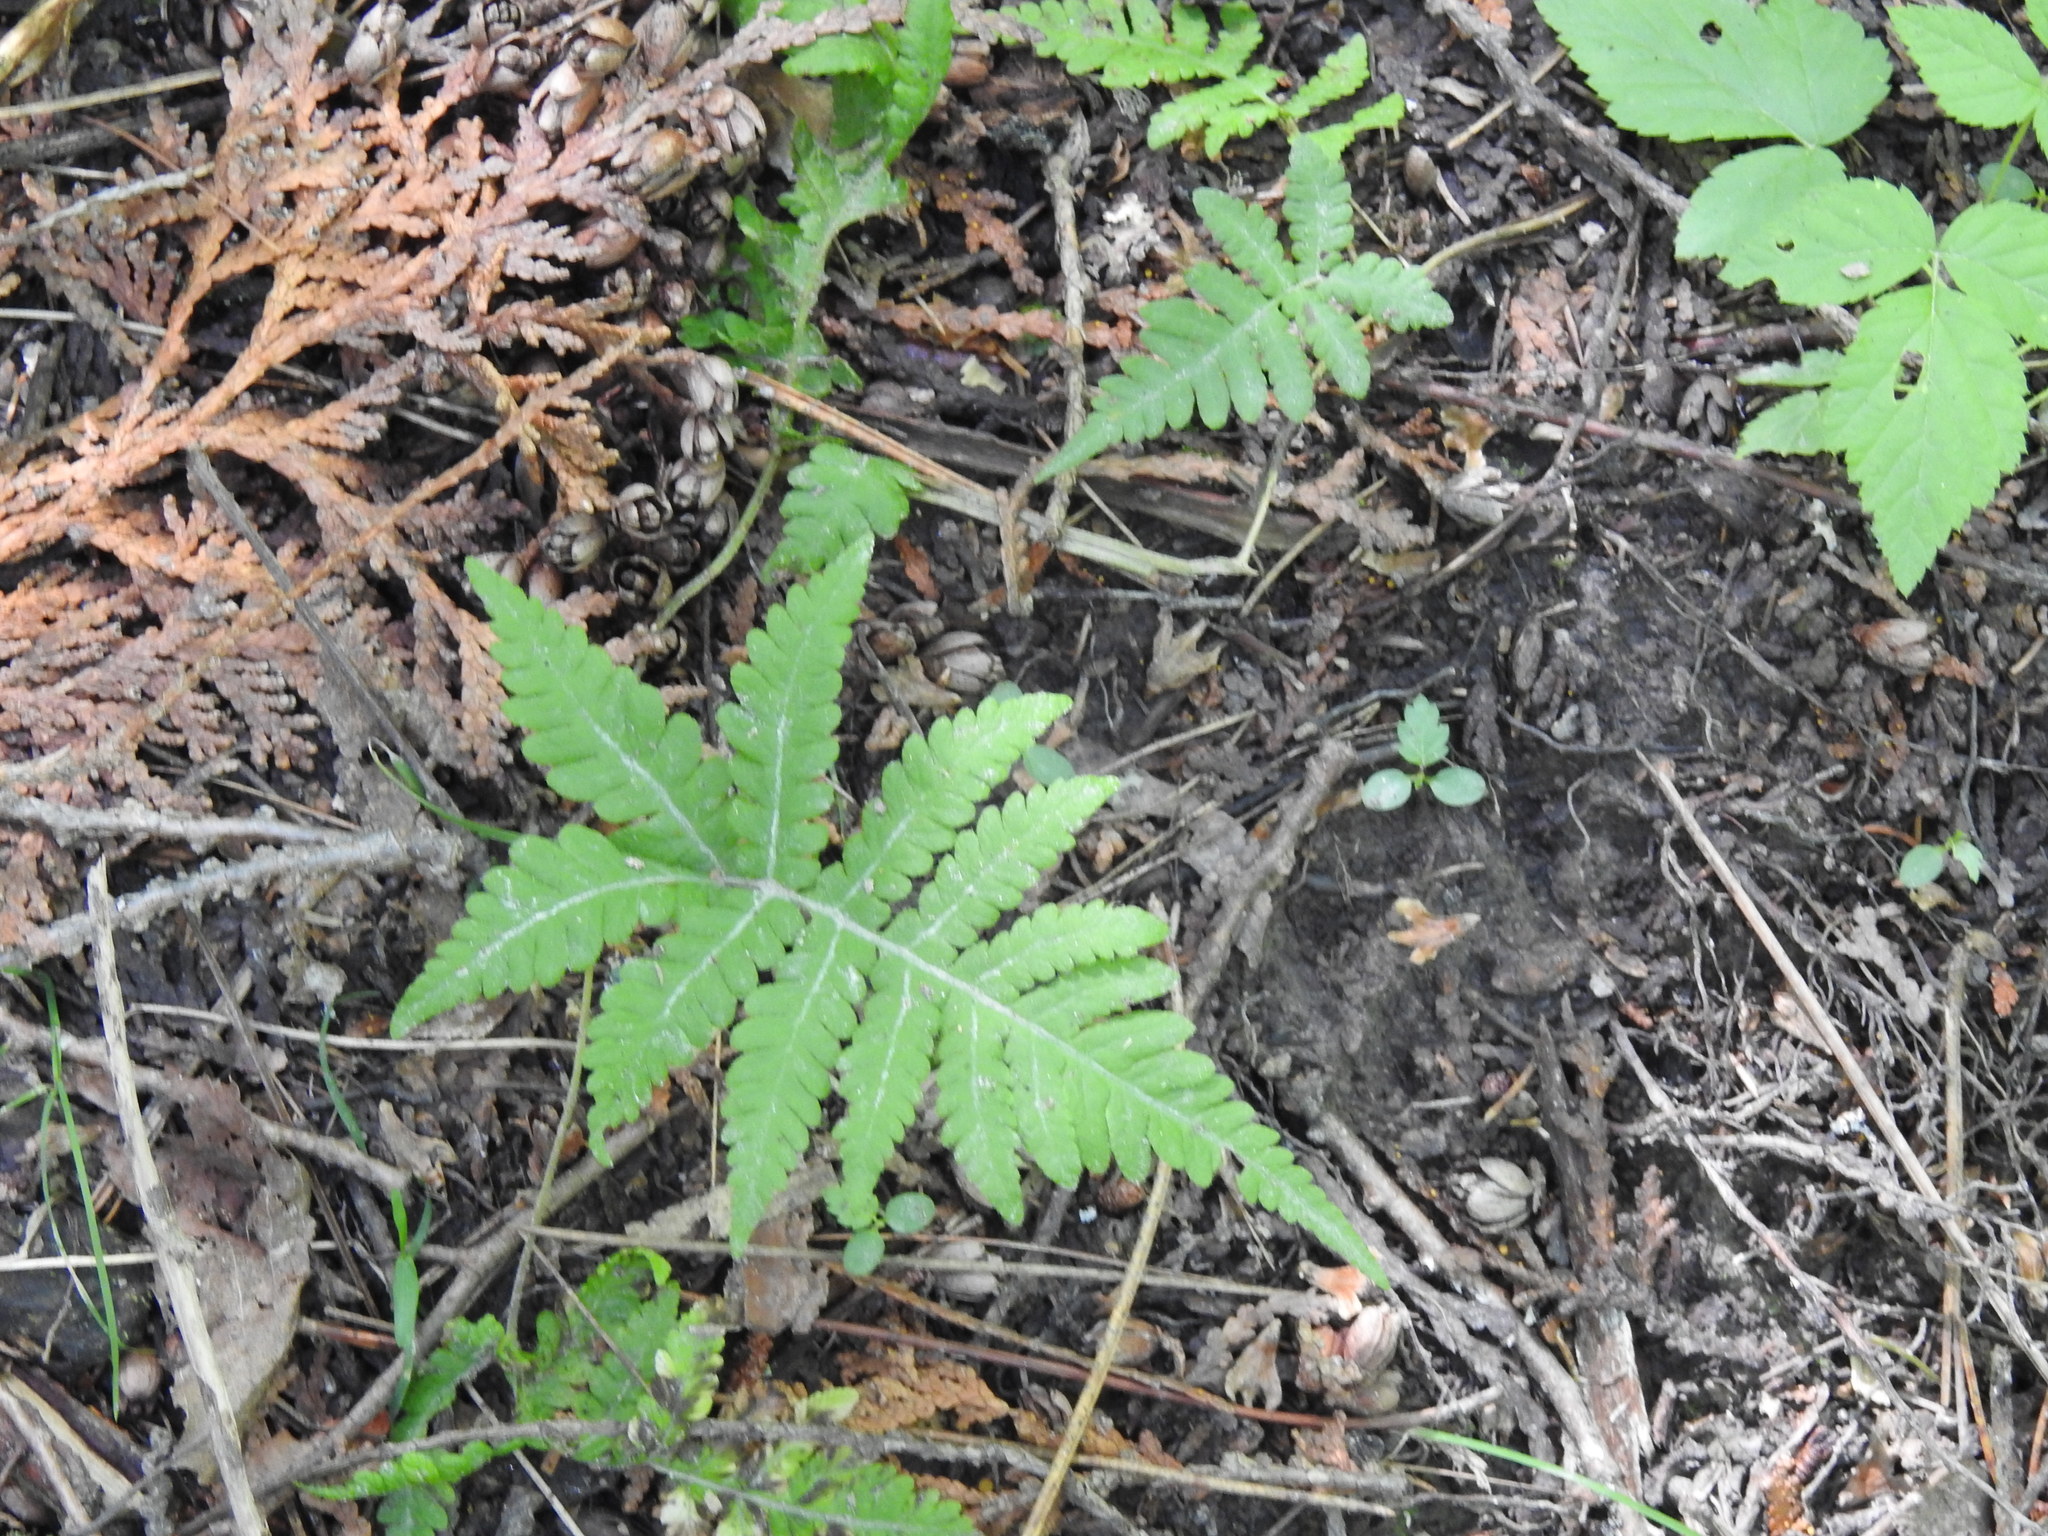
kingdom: Plantae
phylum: Tracheophyta
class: Polypodiopsida
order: Polypodiales
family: Thelypteridaceae
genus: Phegopteris
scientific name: Phegopteris connectilis
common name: Beech fern
